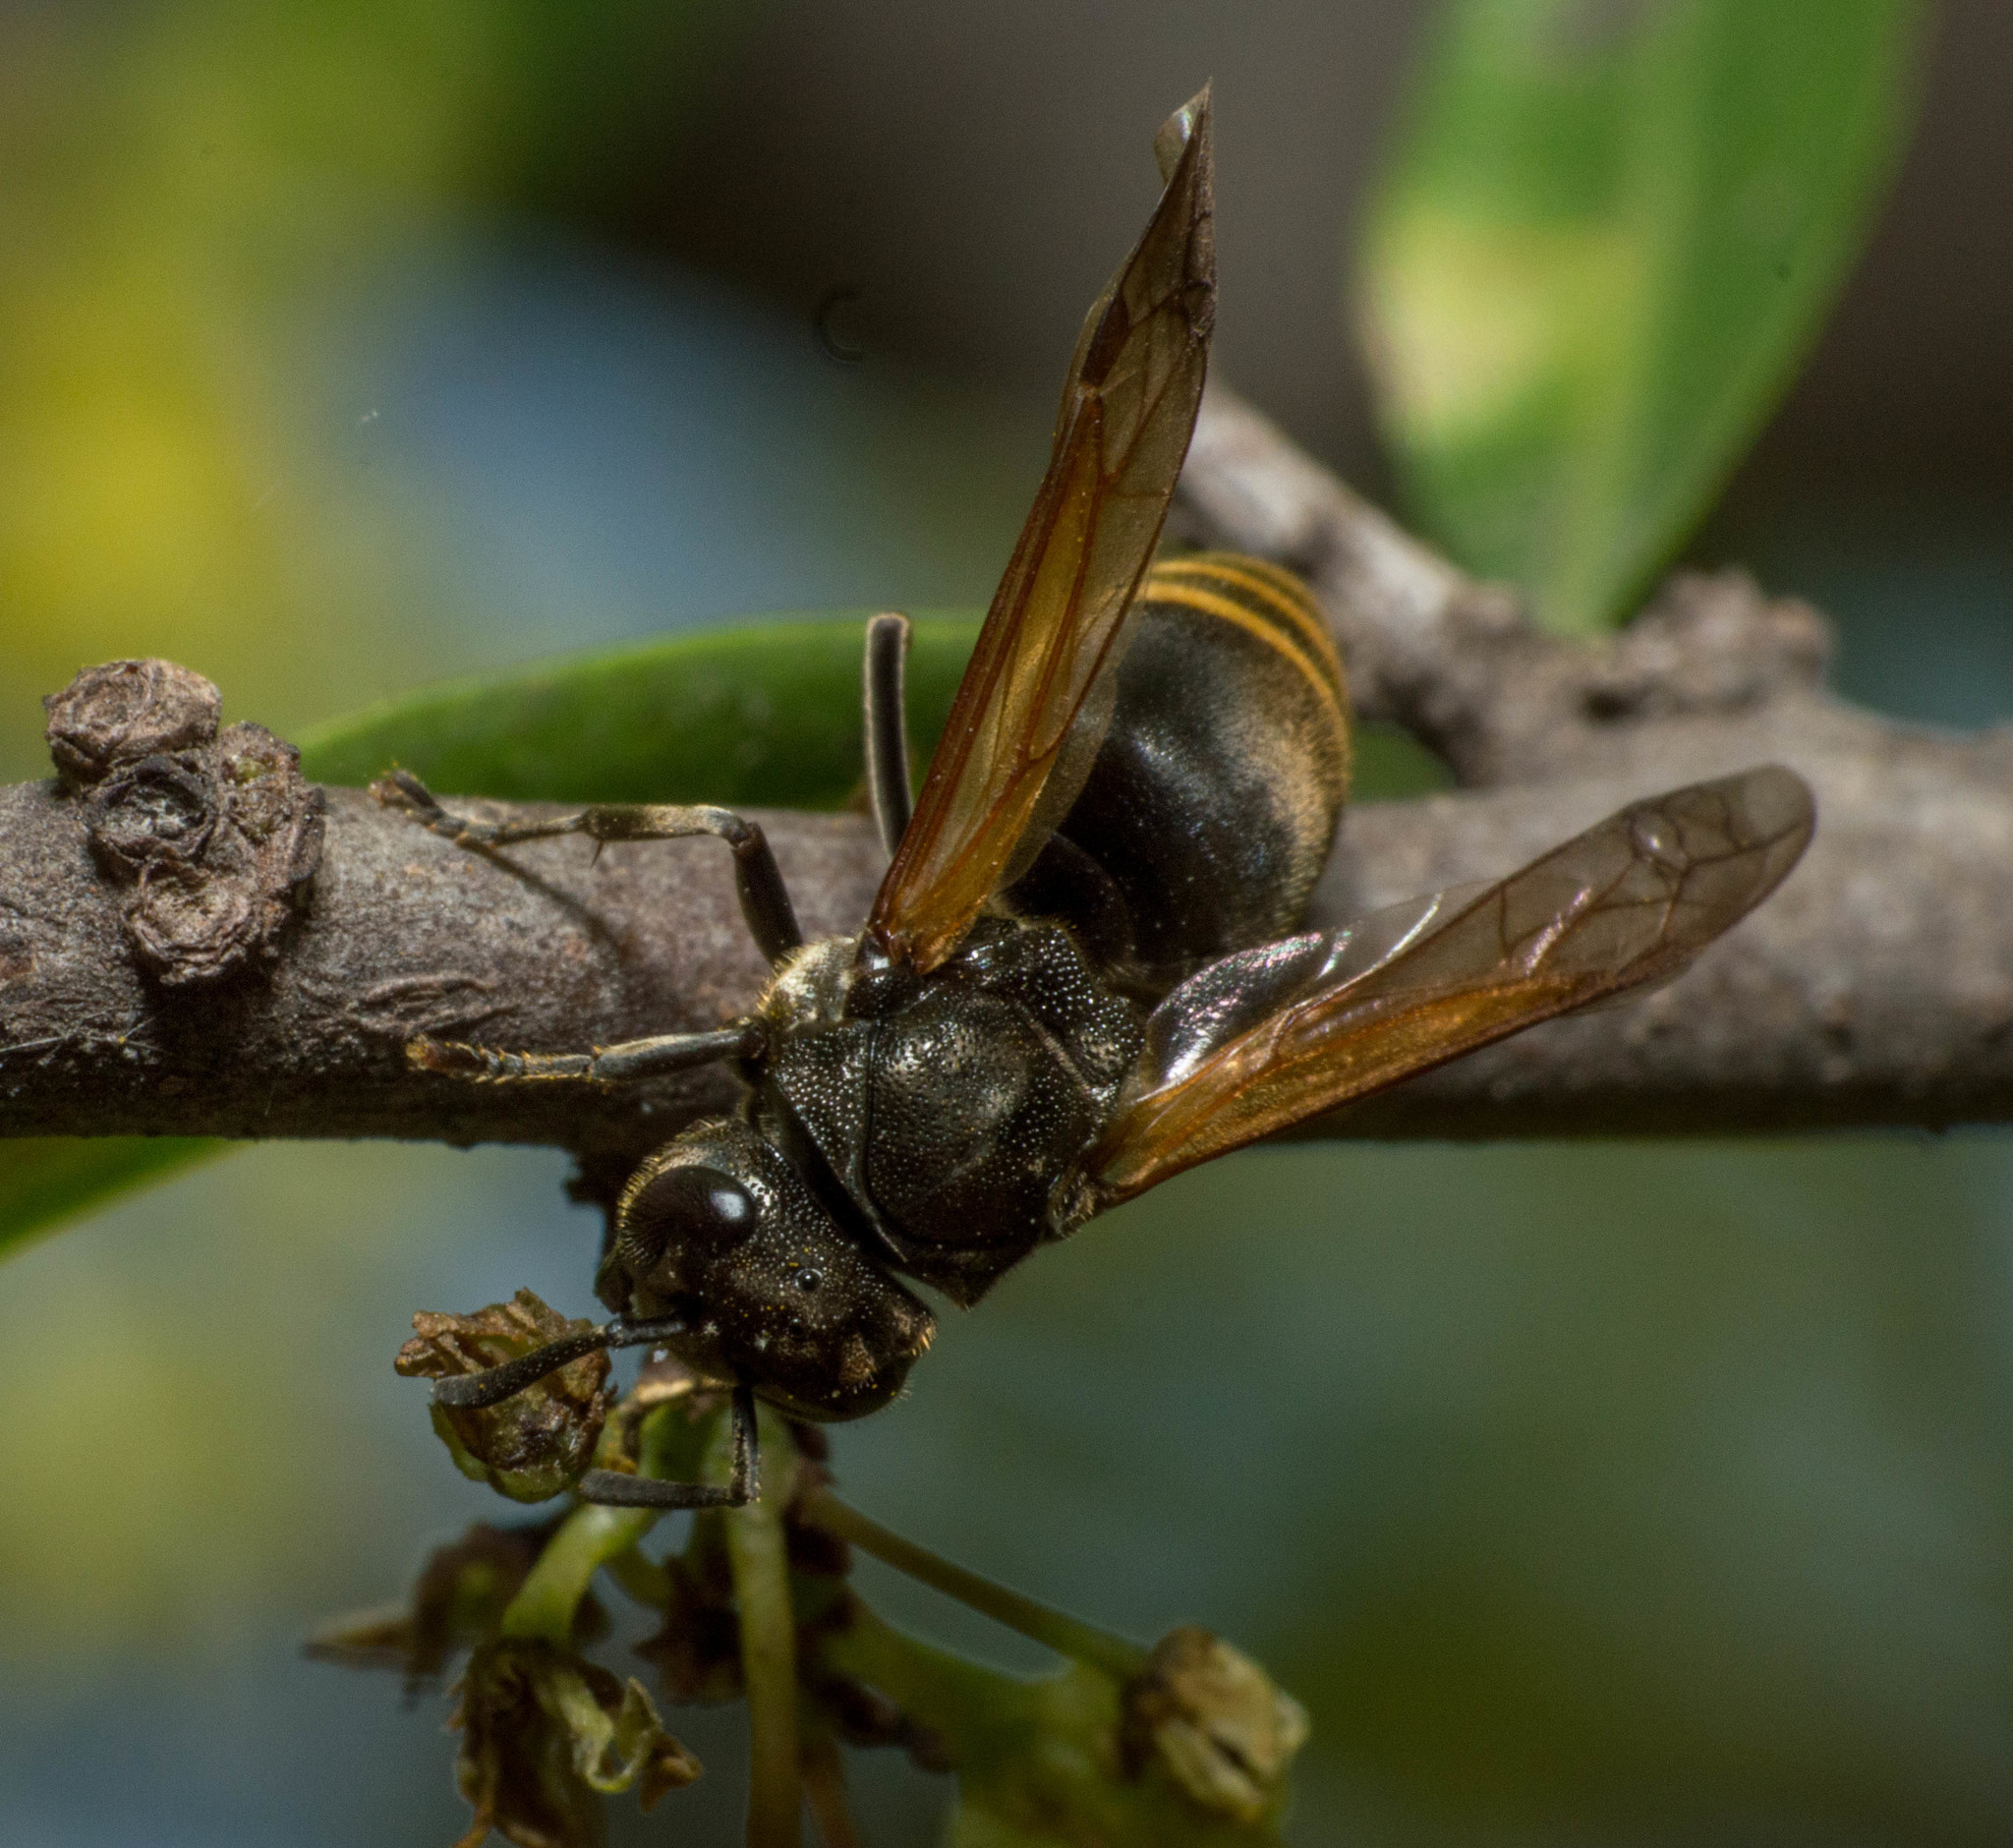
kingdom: Animalia
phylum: Arthropoda
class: Insecta
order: Hymenoptera
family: Vespidae
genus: Brachygastra
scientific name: Brachygastra lecheguana
